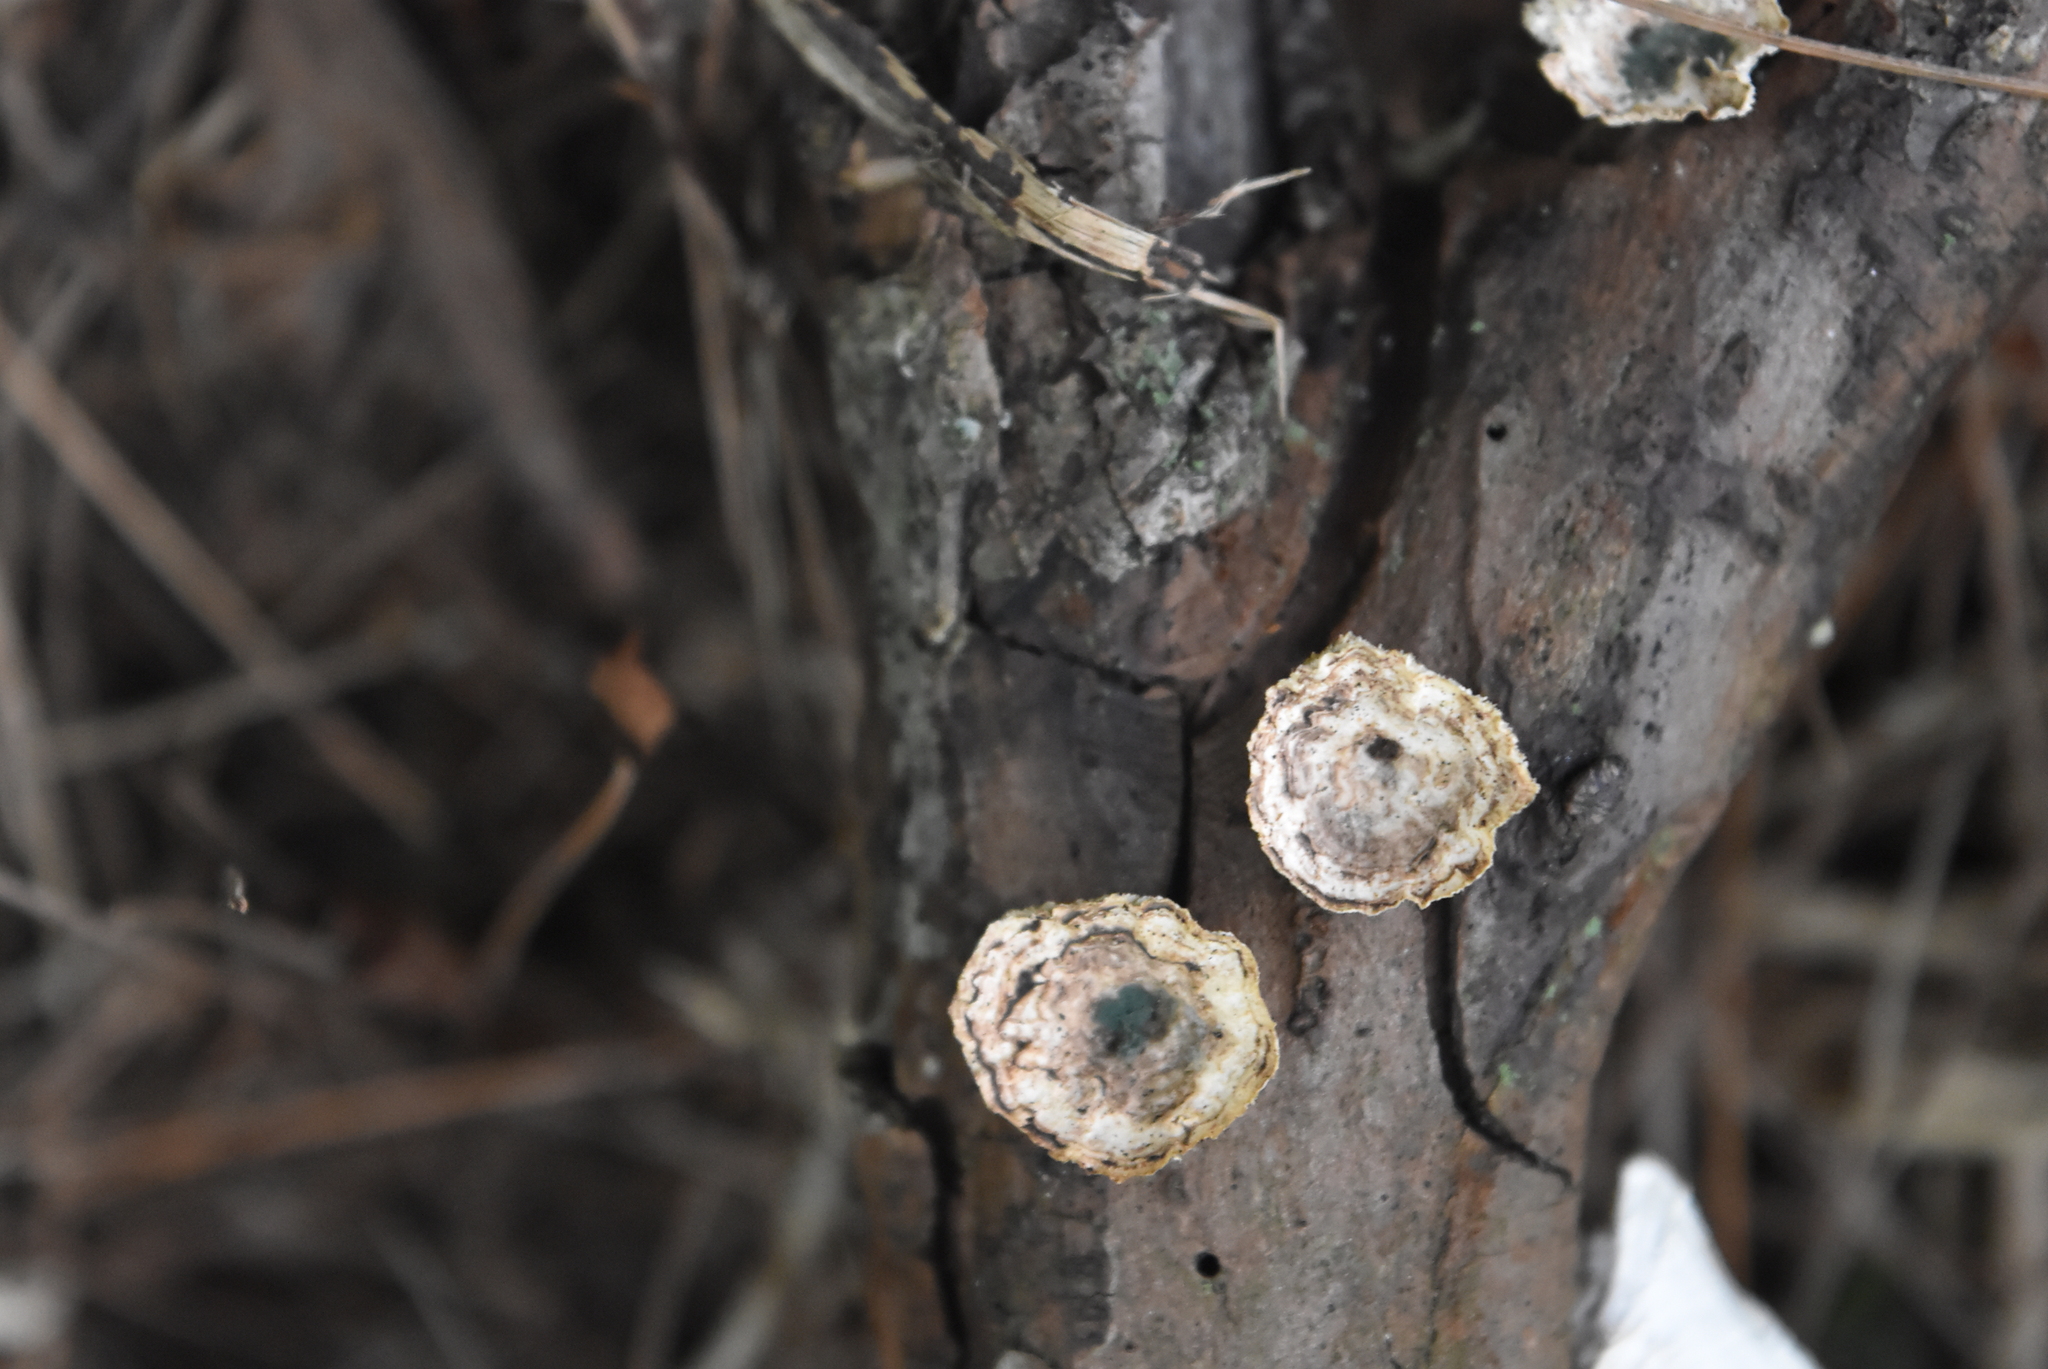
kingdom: Fungi
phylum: Basidiomycota
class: Agaricomycetes
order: Polyporales
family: Polyporaceae
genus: Poronidulus
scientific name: Poronidulus conchifer
